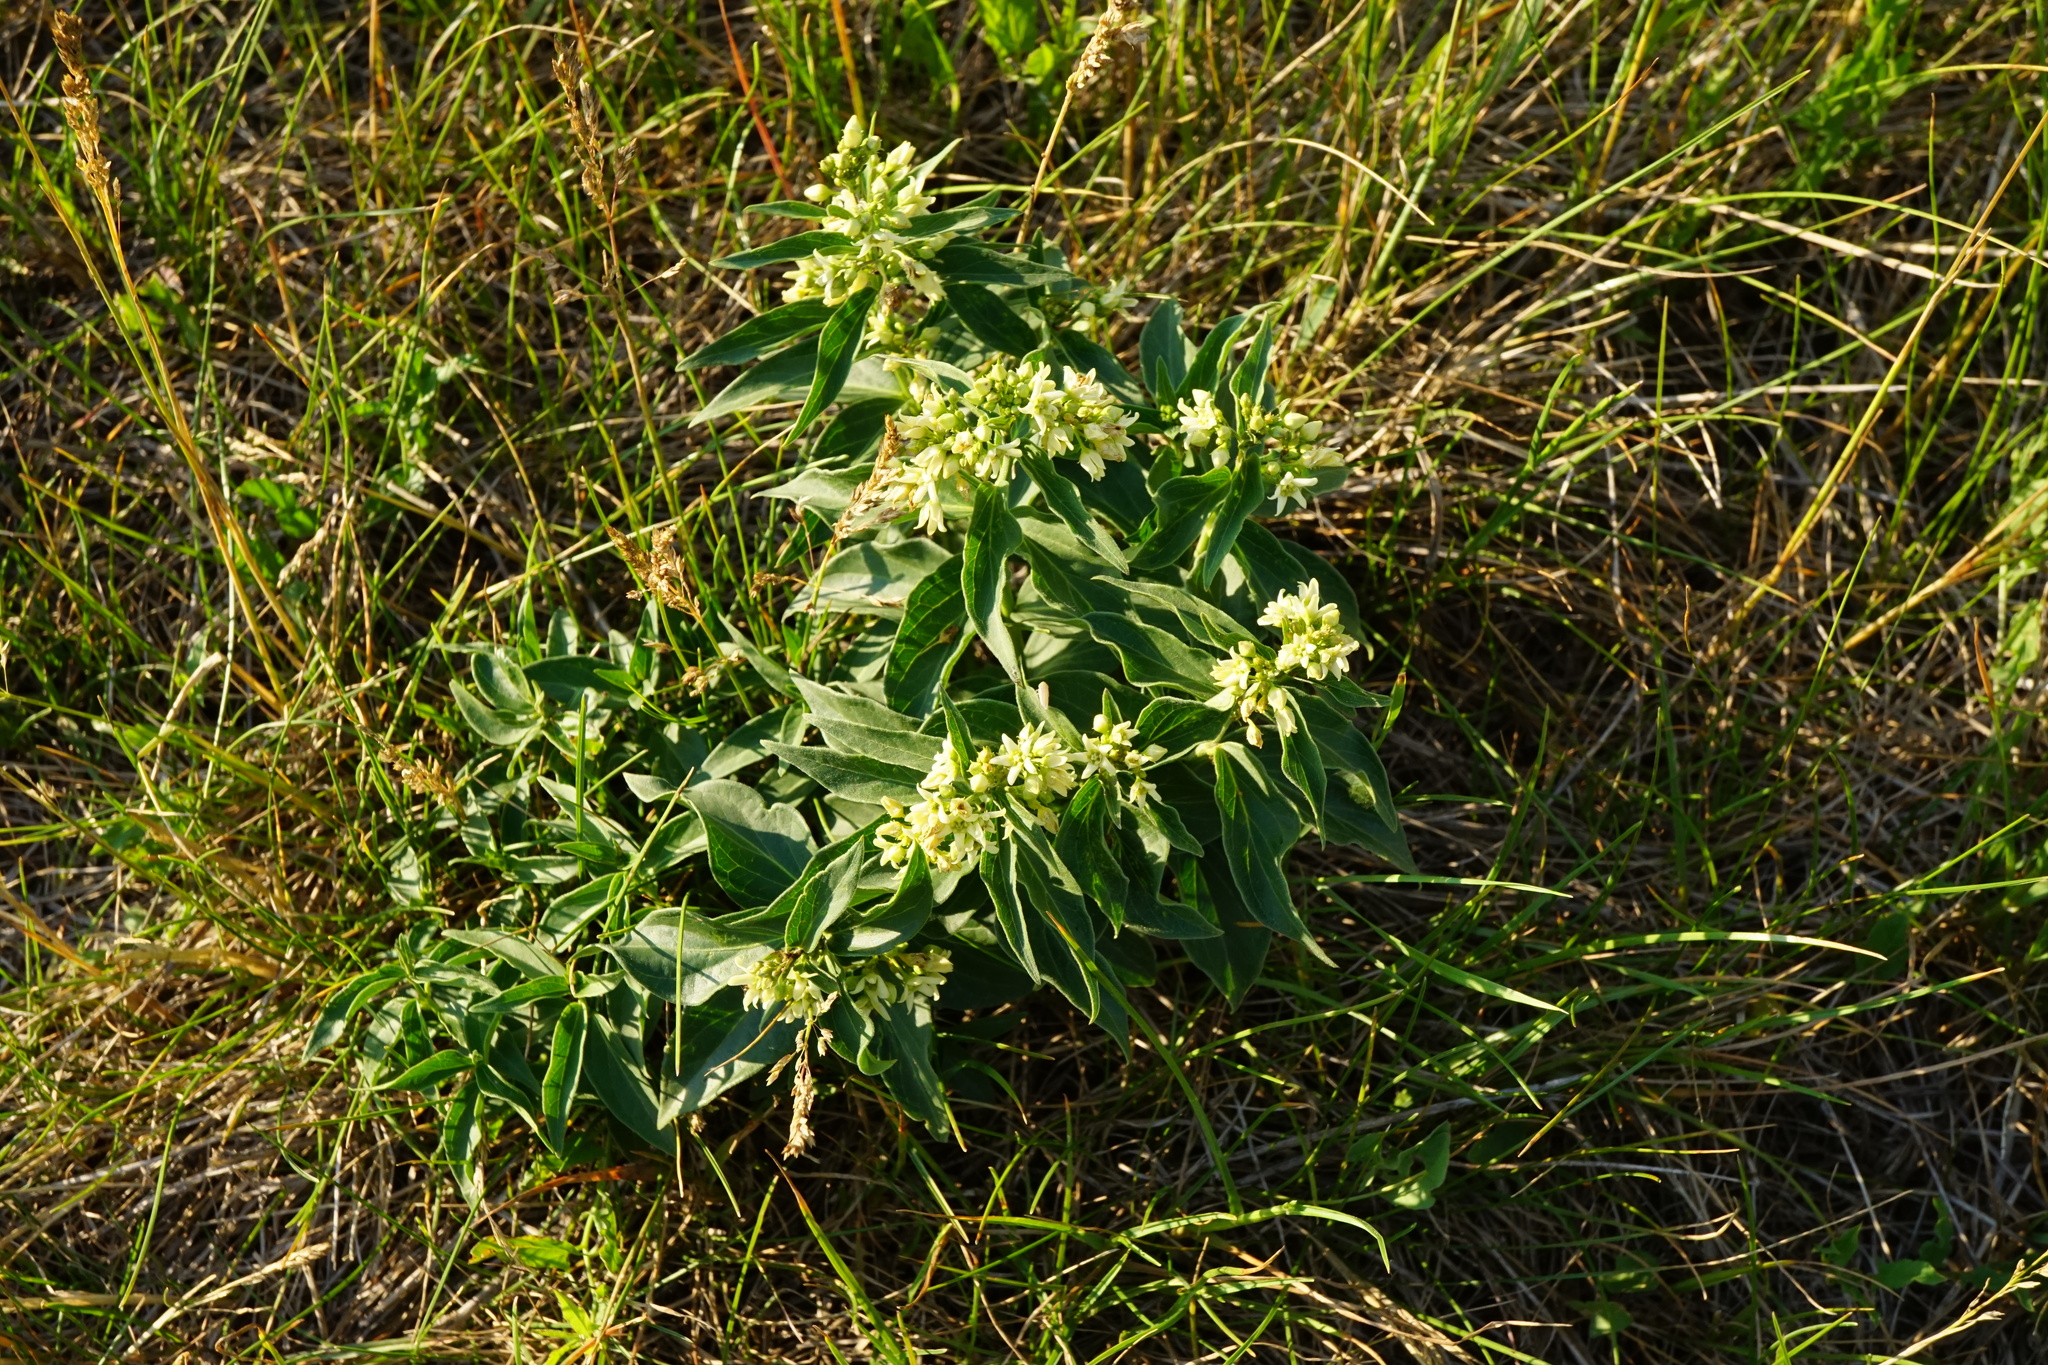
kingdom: Plantae
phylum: Tracheophyta
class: Magnoliopsida
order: Gentianales
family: Apocynaceae
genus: Vincetoxicum
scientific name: Vincetoxicum hirundinaria
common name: White swallowwort
